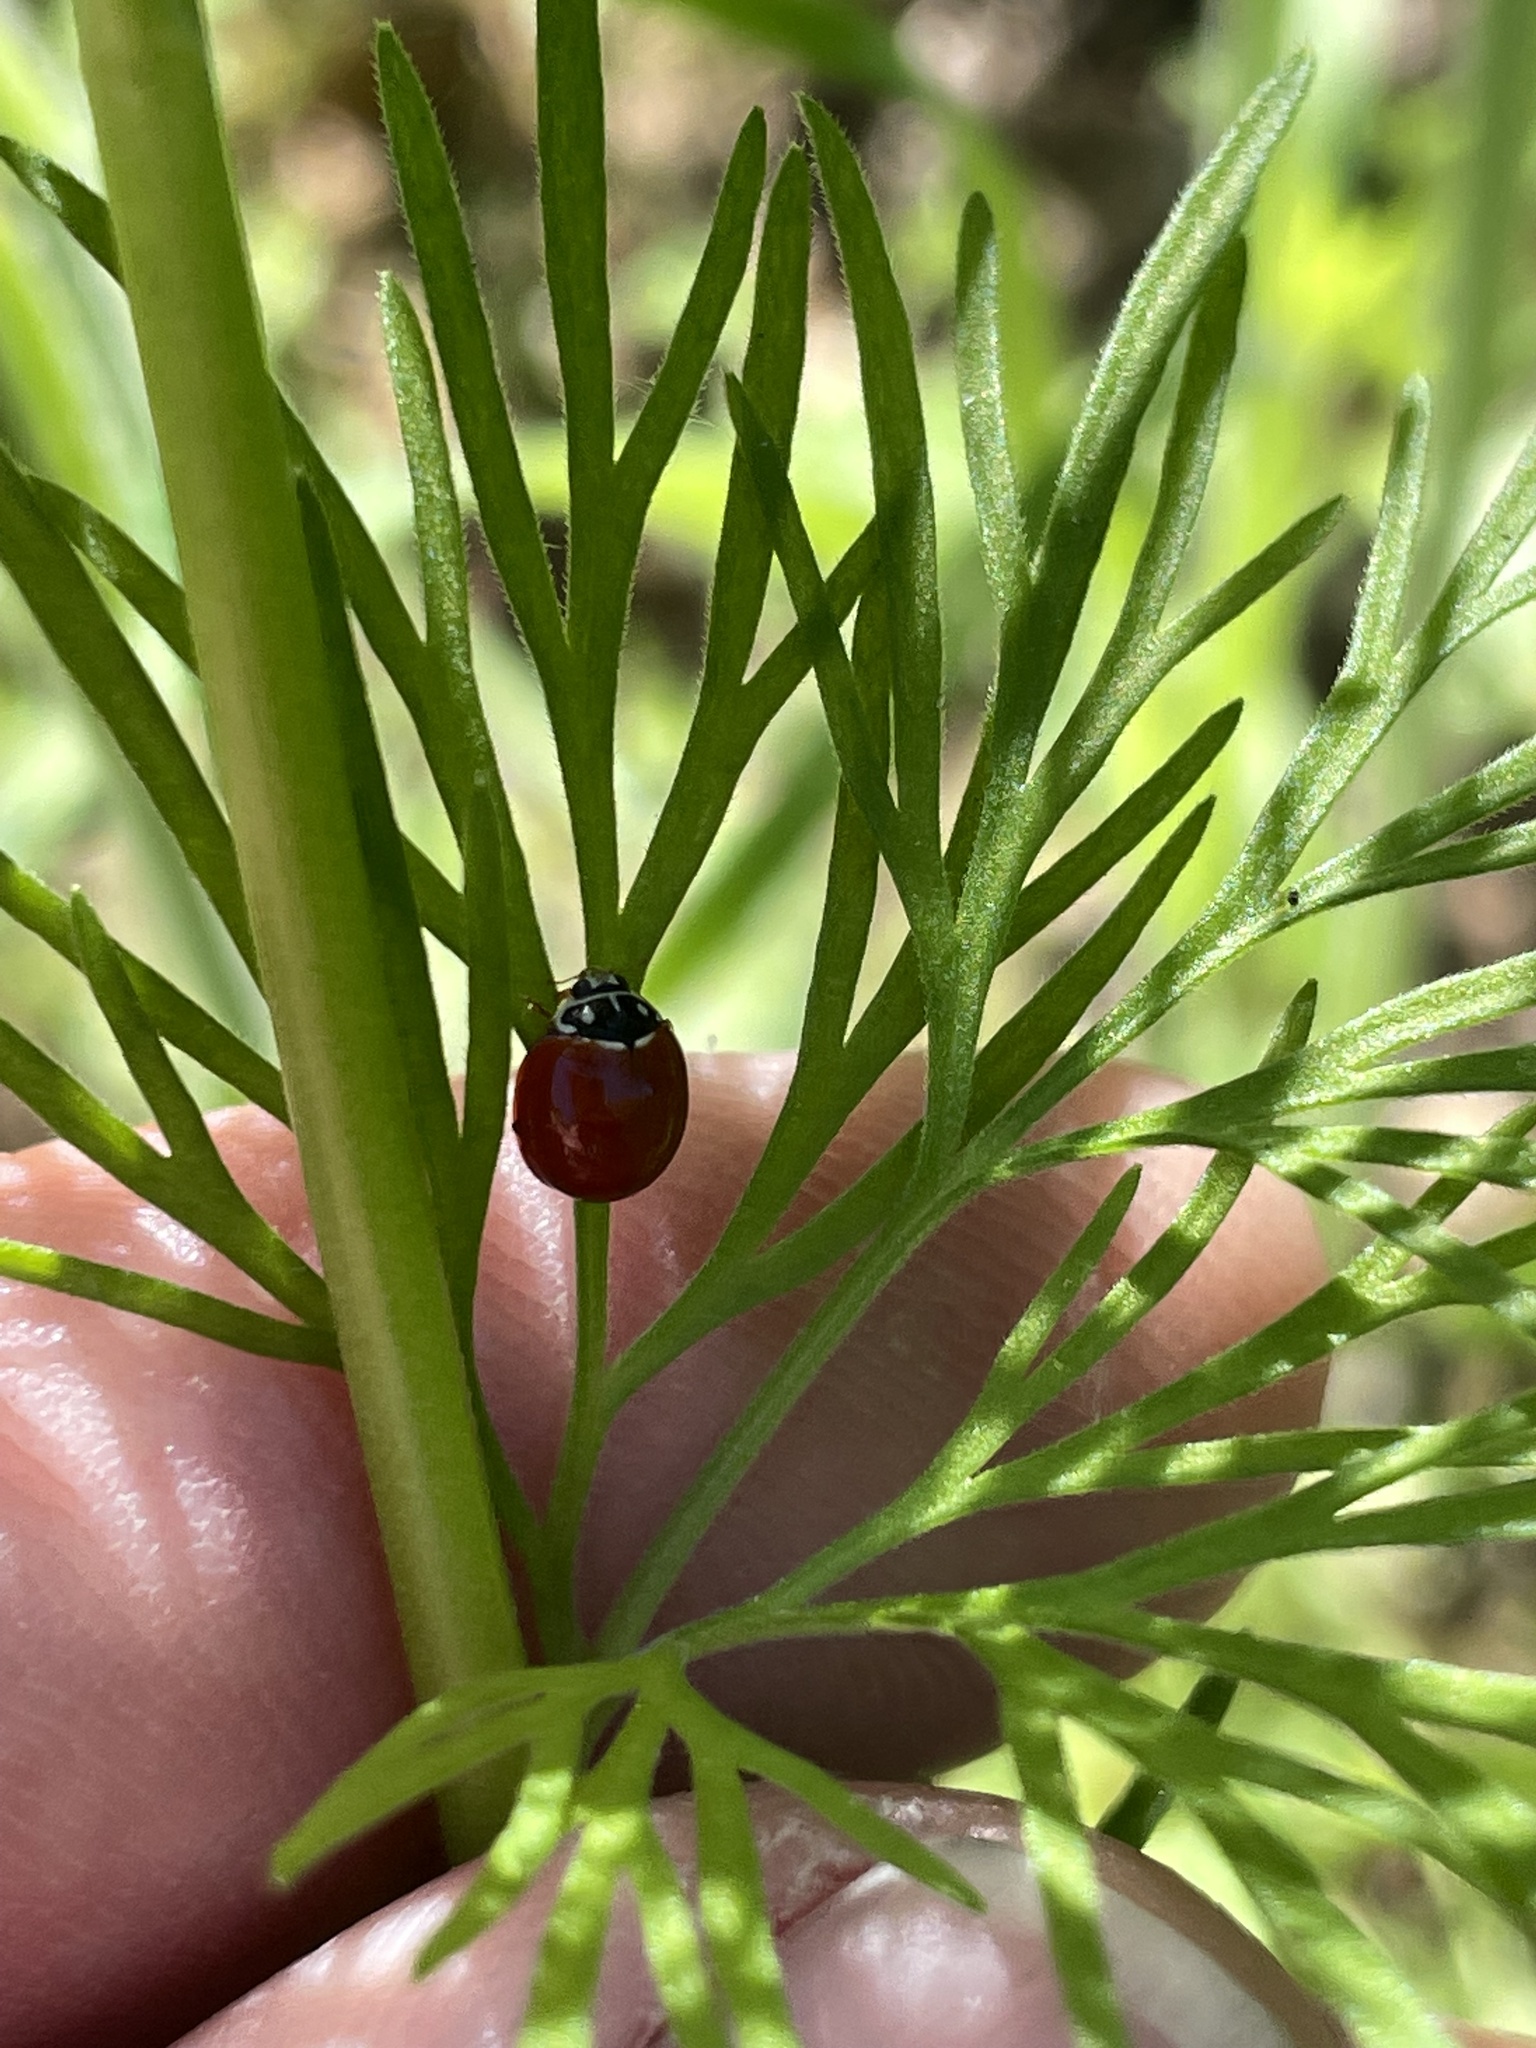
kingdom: Animalia
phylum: Arthropoda
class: Insecta
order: Coleoptera
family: Coccinellidae
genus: Cycloneda
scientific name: Cycloneda sanguinea
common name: Ladybird beetle
